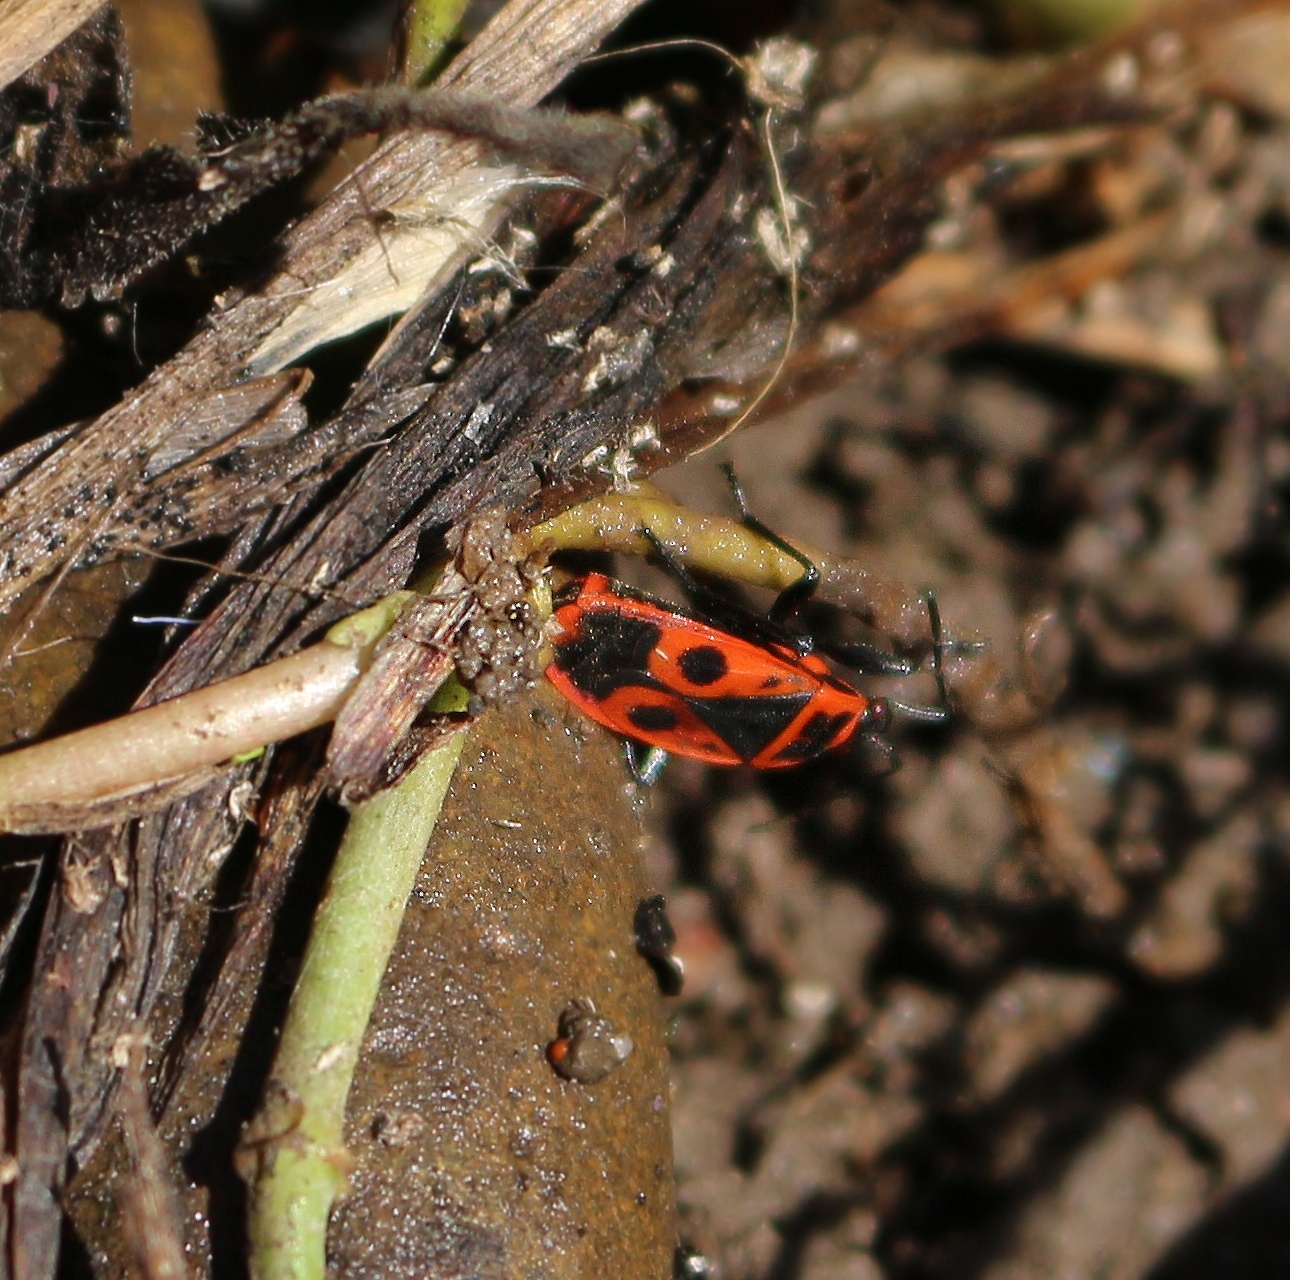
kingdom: Animalia
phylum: Arthropoda
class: Insecta
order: Hemiptera
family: Pyrrhocoridae
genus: Pyrrhocoris
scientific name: Pyrrhocoris apterus
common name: Firebug
